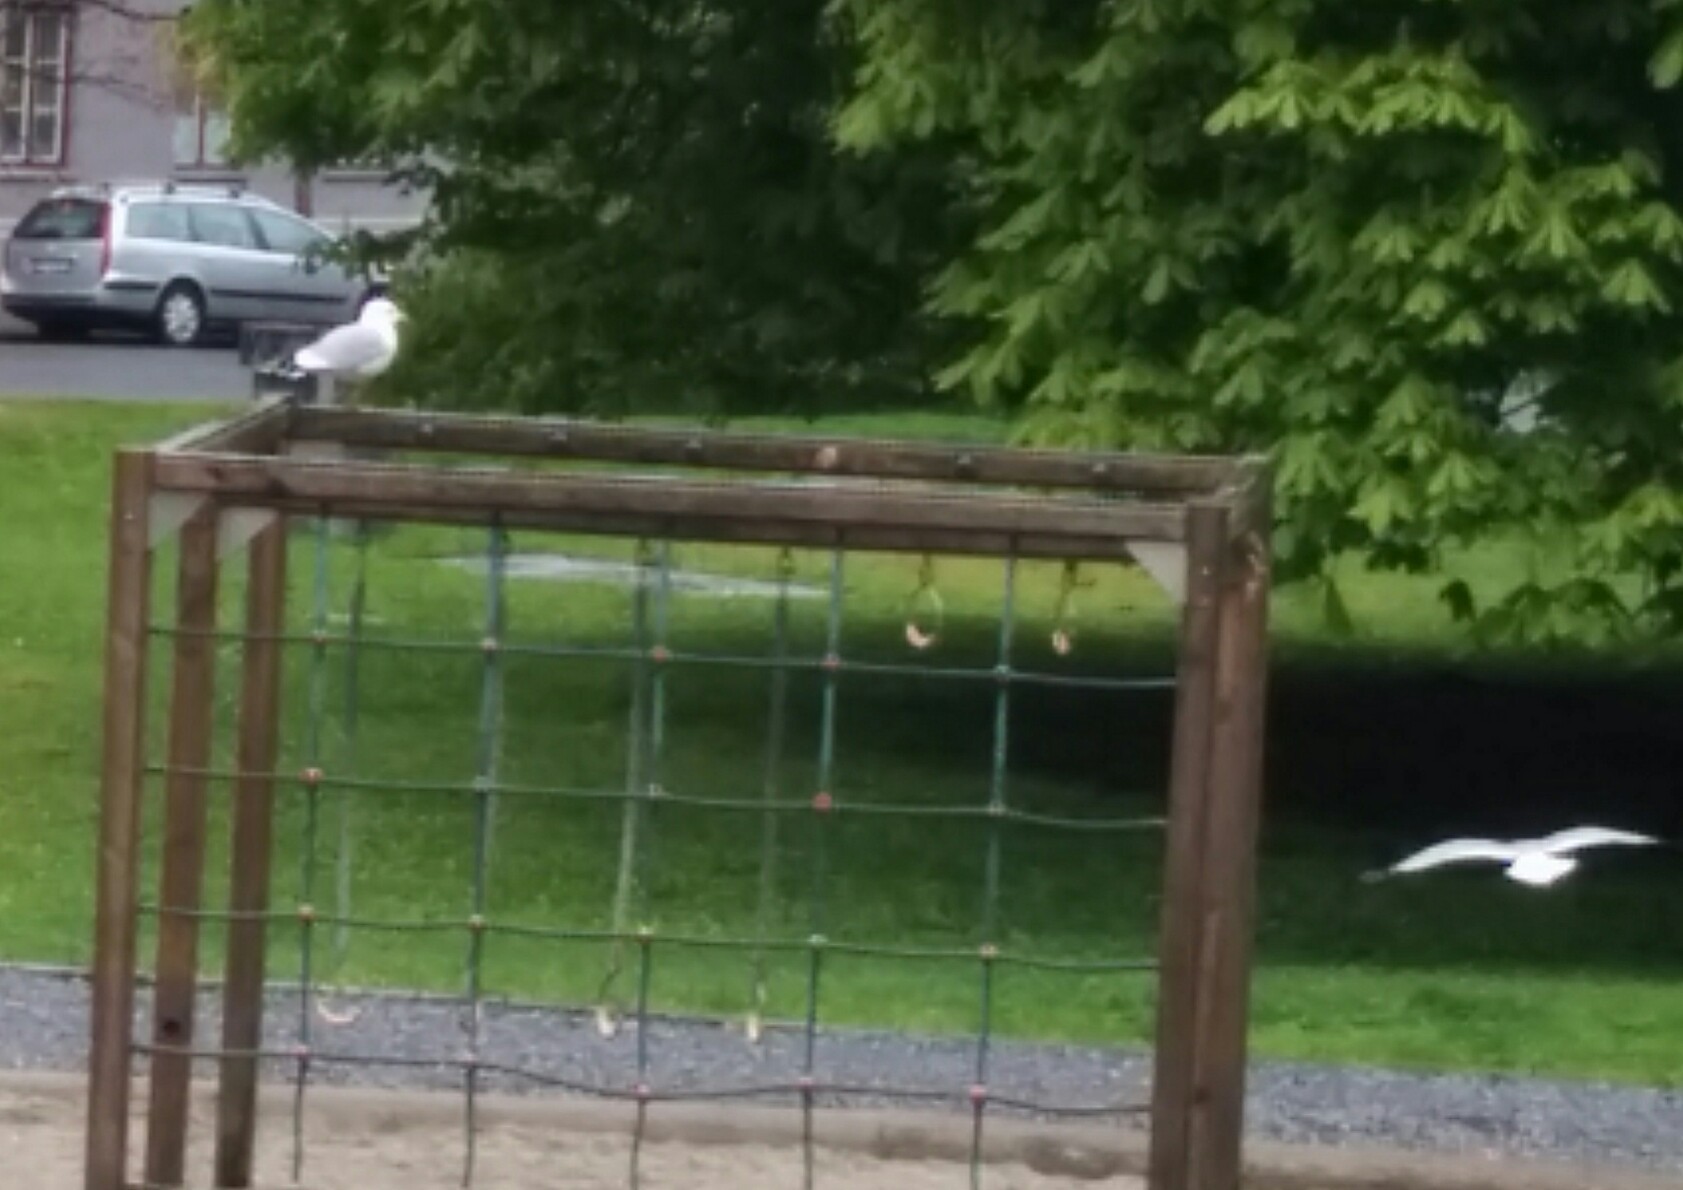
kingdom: Animalia
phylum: Chordata
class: Aves
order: Charadriiformes
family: Laridae
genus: Larus
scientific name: Larus canus
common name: Mew gull
